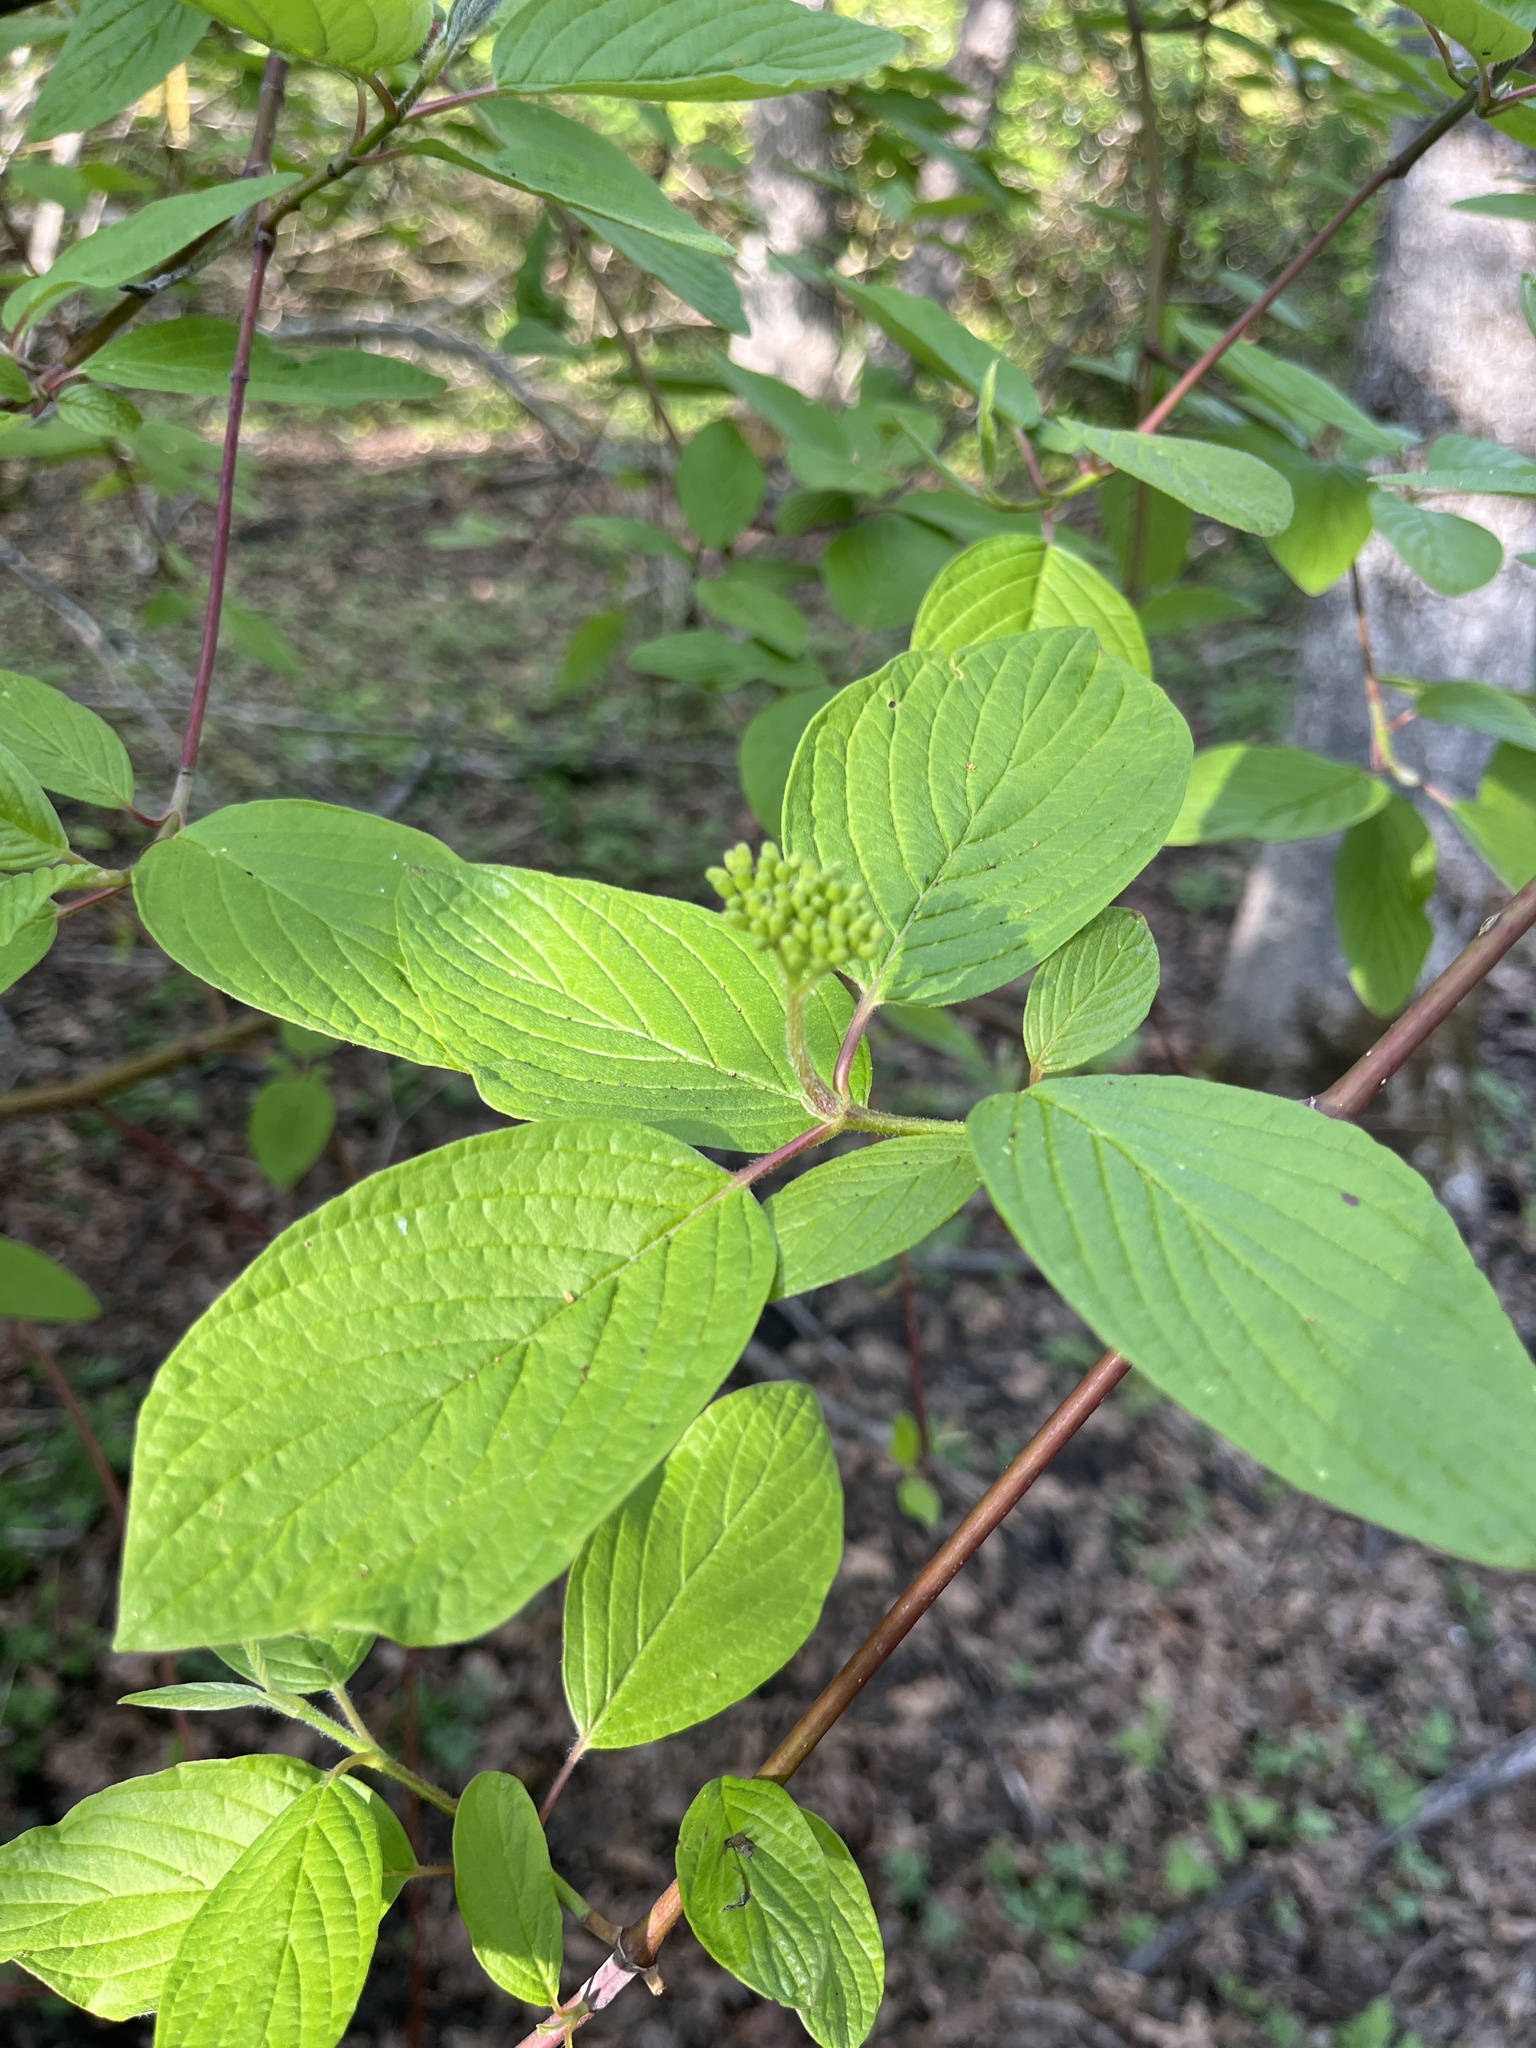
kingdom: Plantae
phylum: Tracheophyta
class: Magnoliopsida
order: Cornales
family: Cornaceae
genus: Cornus
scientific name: Cornus sericea
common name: Red-osier dogwood
